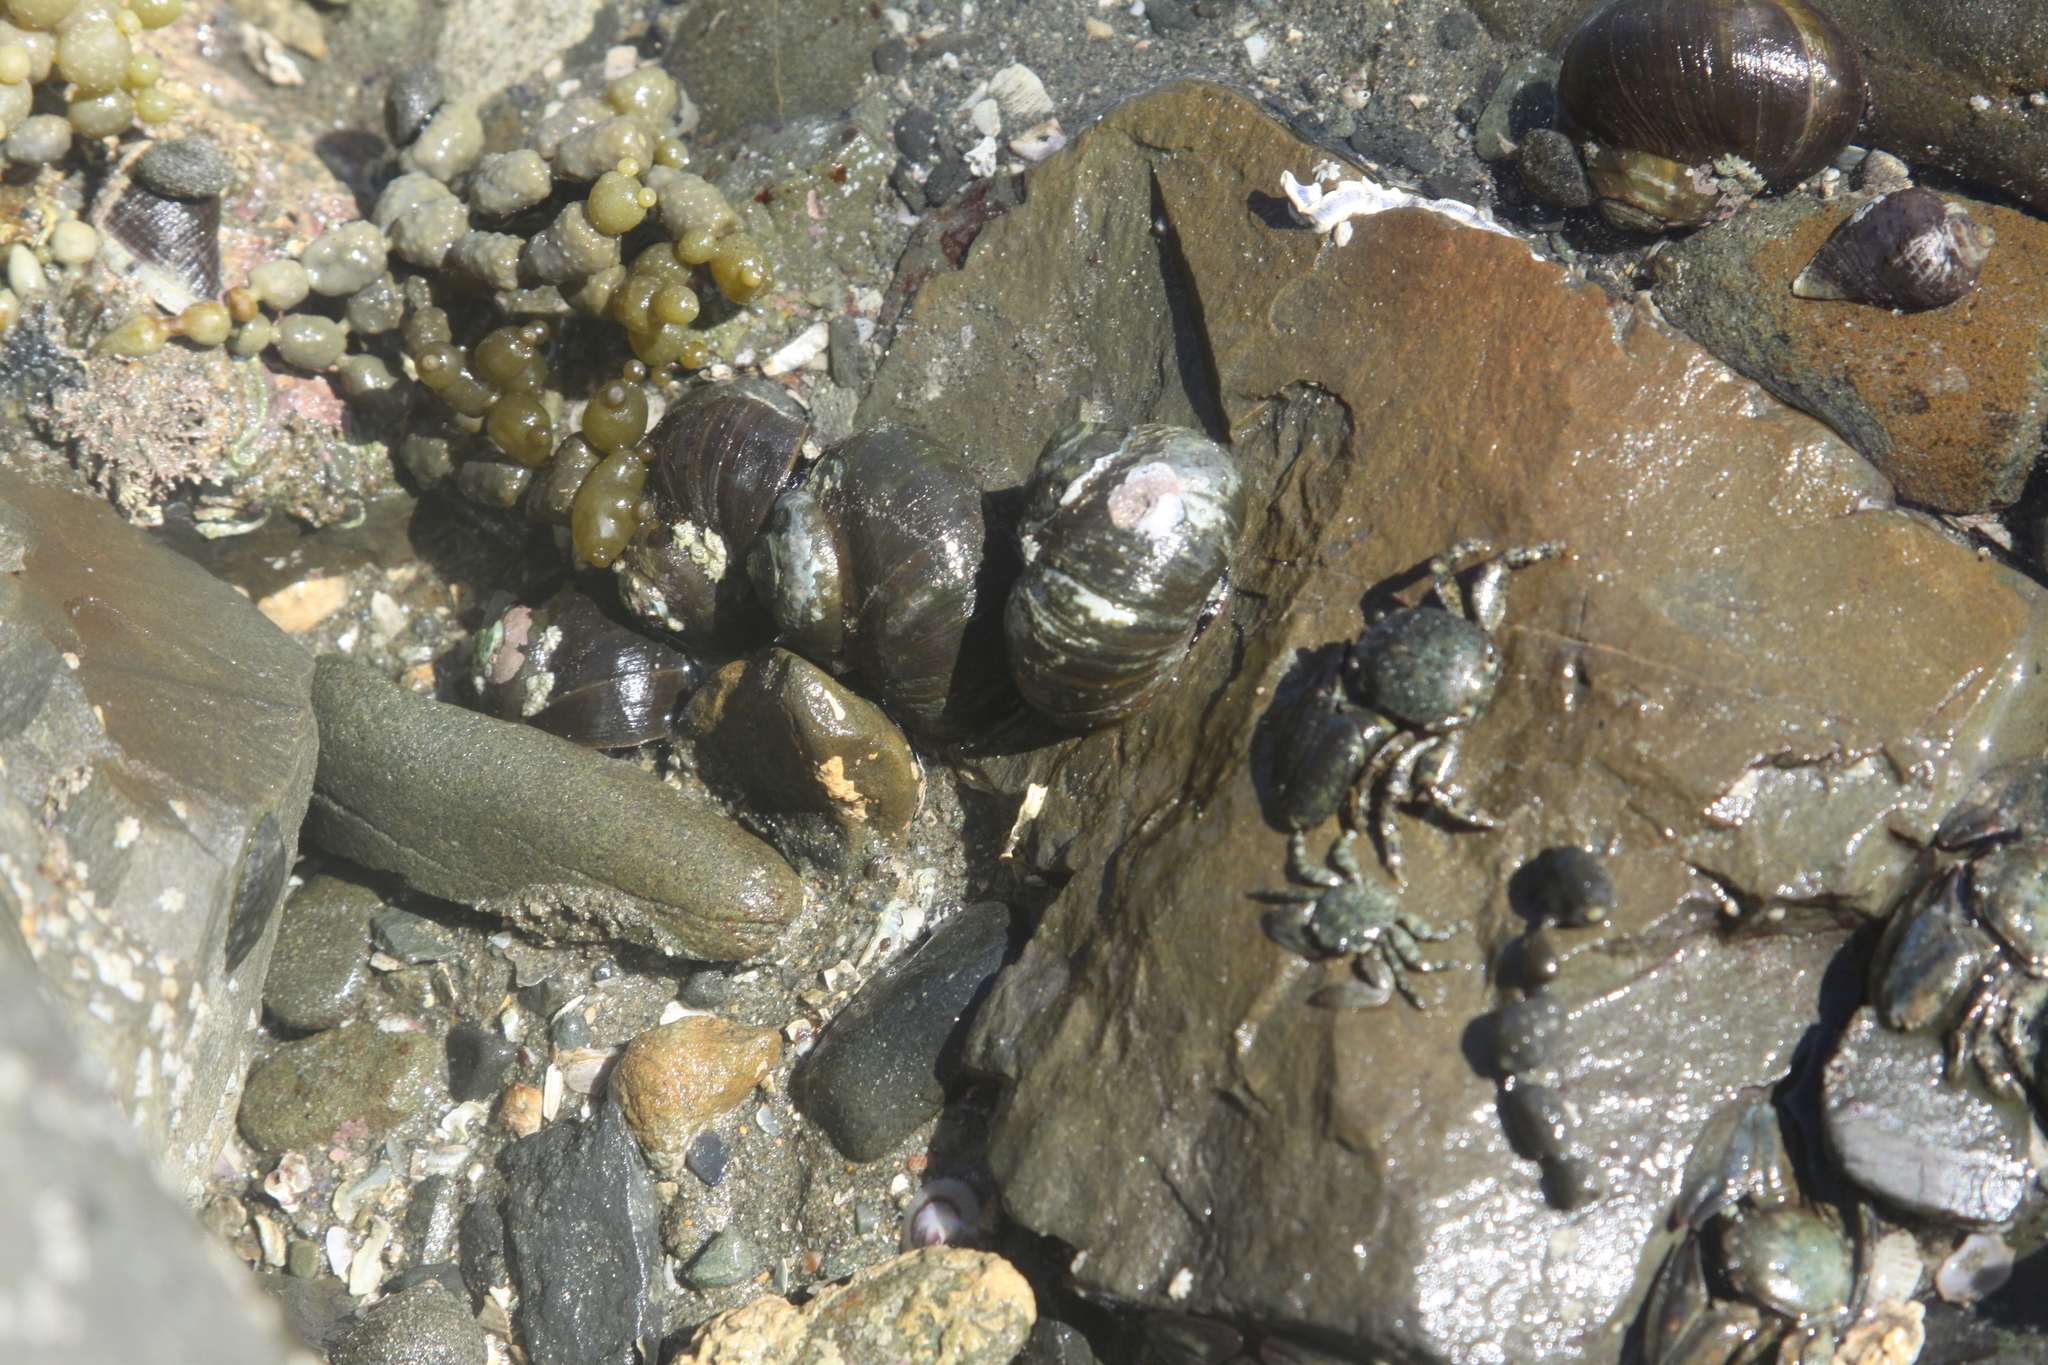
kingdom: Animalia
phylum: Arthropoda
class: Malacostraca
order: Decapoda
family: Porcellanidae
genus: Petrolisthes
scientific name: Petrolisthes elongatus
